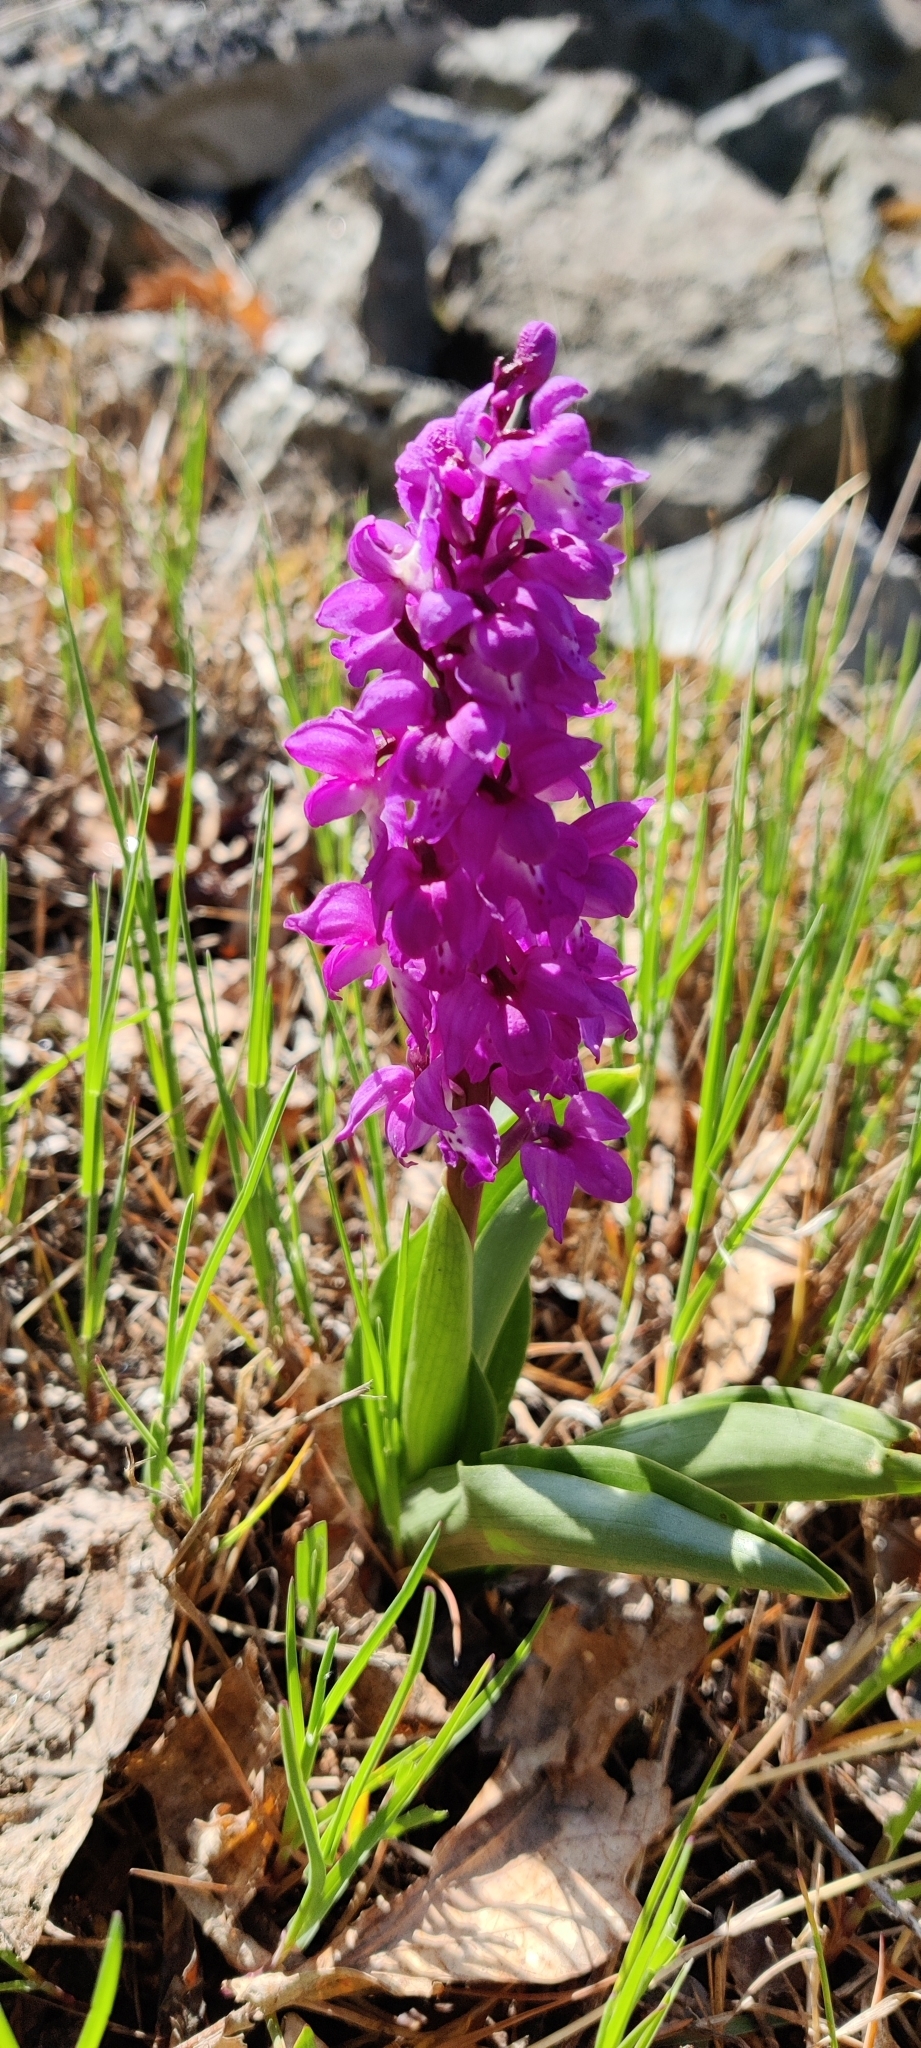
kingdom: Plantae
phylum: Tracheophyta
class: Liliopsida
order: Asparagales
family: Orchidaceae
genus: Orchis
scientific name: Orchis mascula
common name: Early-purple orchid
